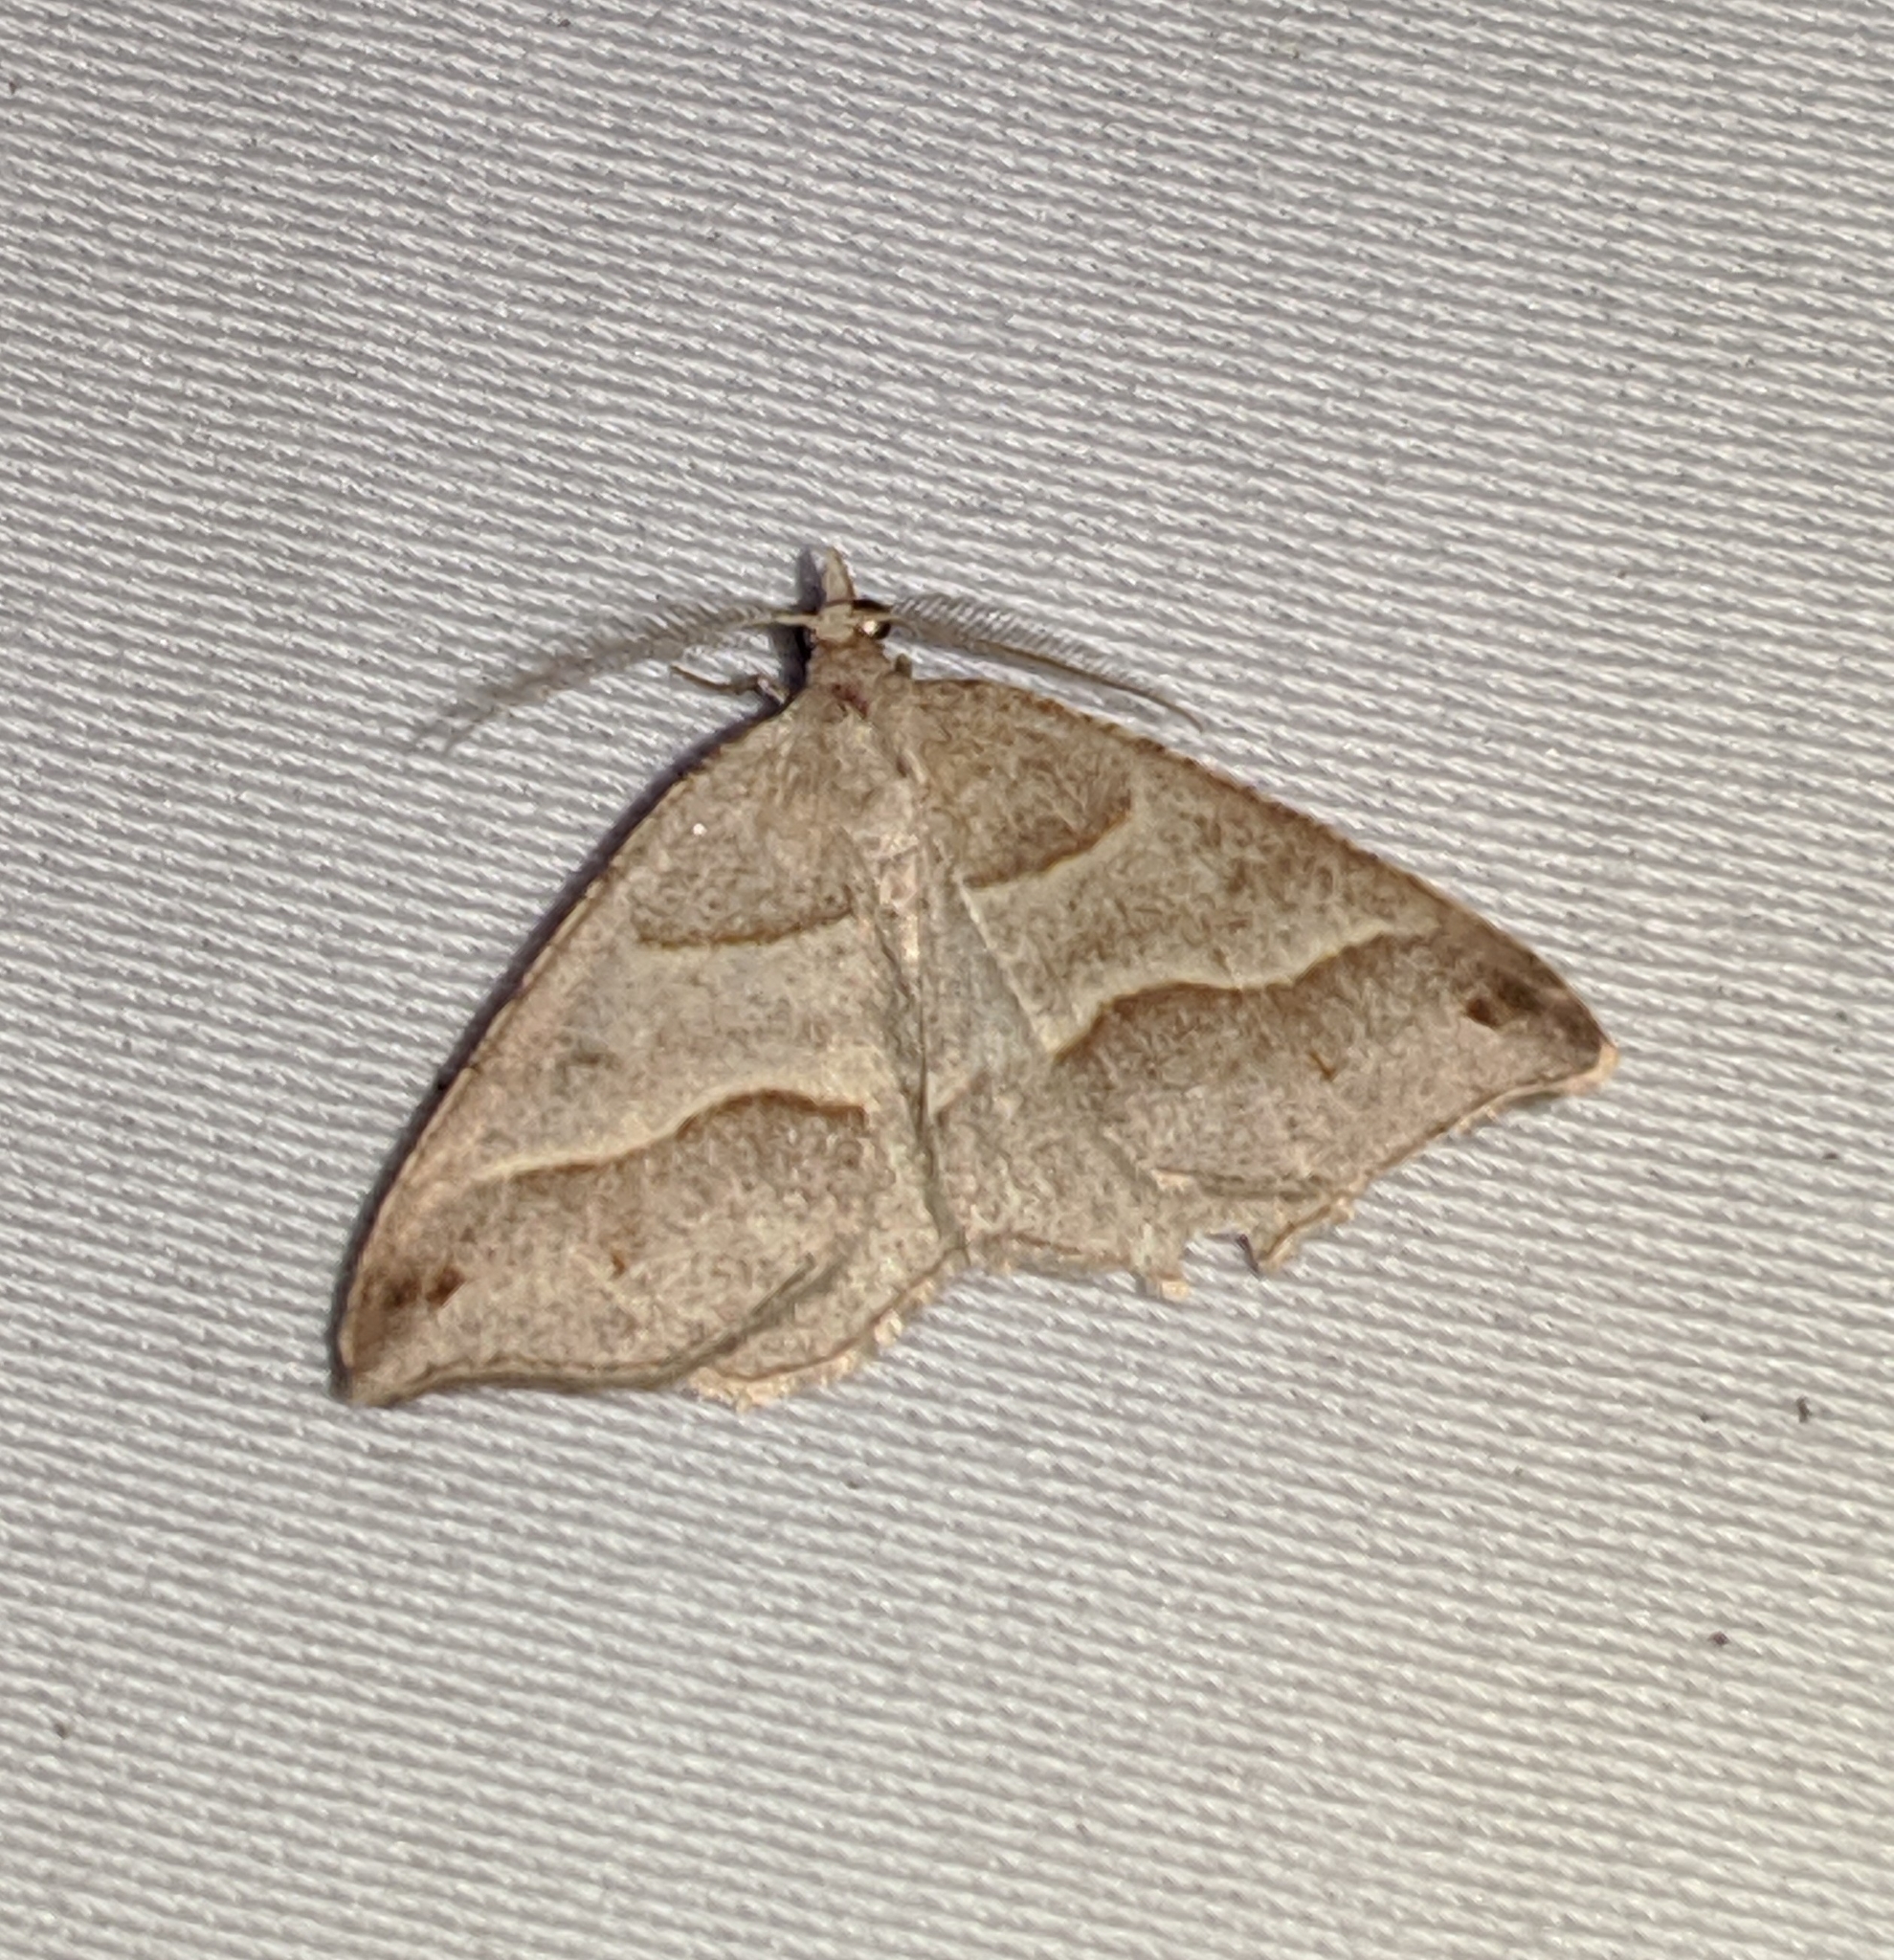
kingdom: Animalia
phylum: Arthropoda
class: Insecta
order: Lepidoptera
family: Geometridae
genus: Macaria
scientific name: Macaria lorquinaria
